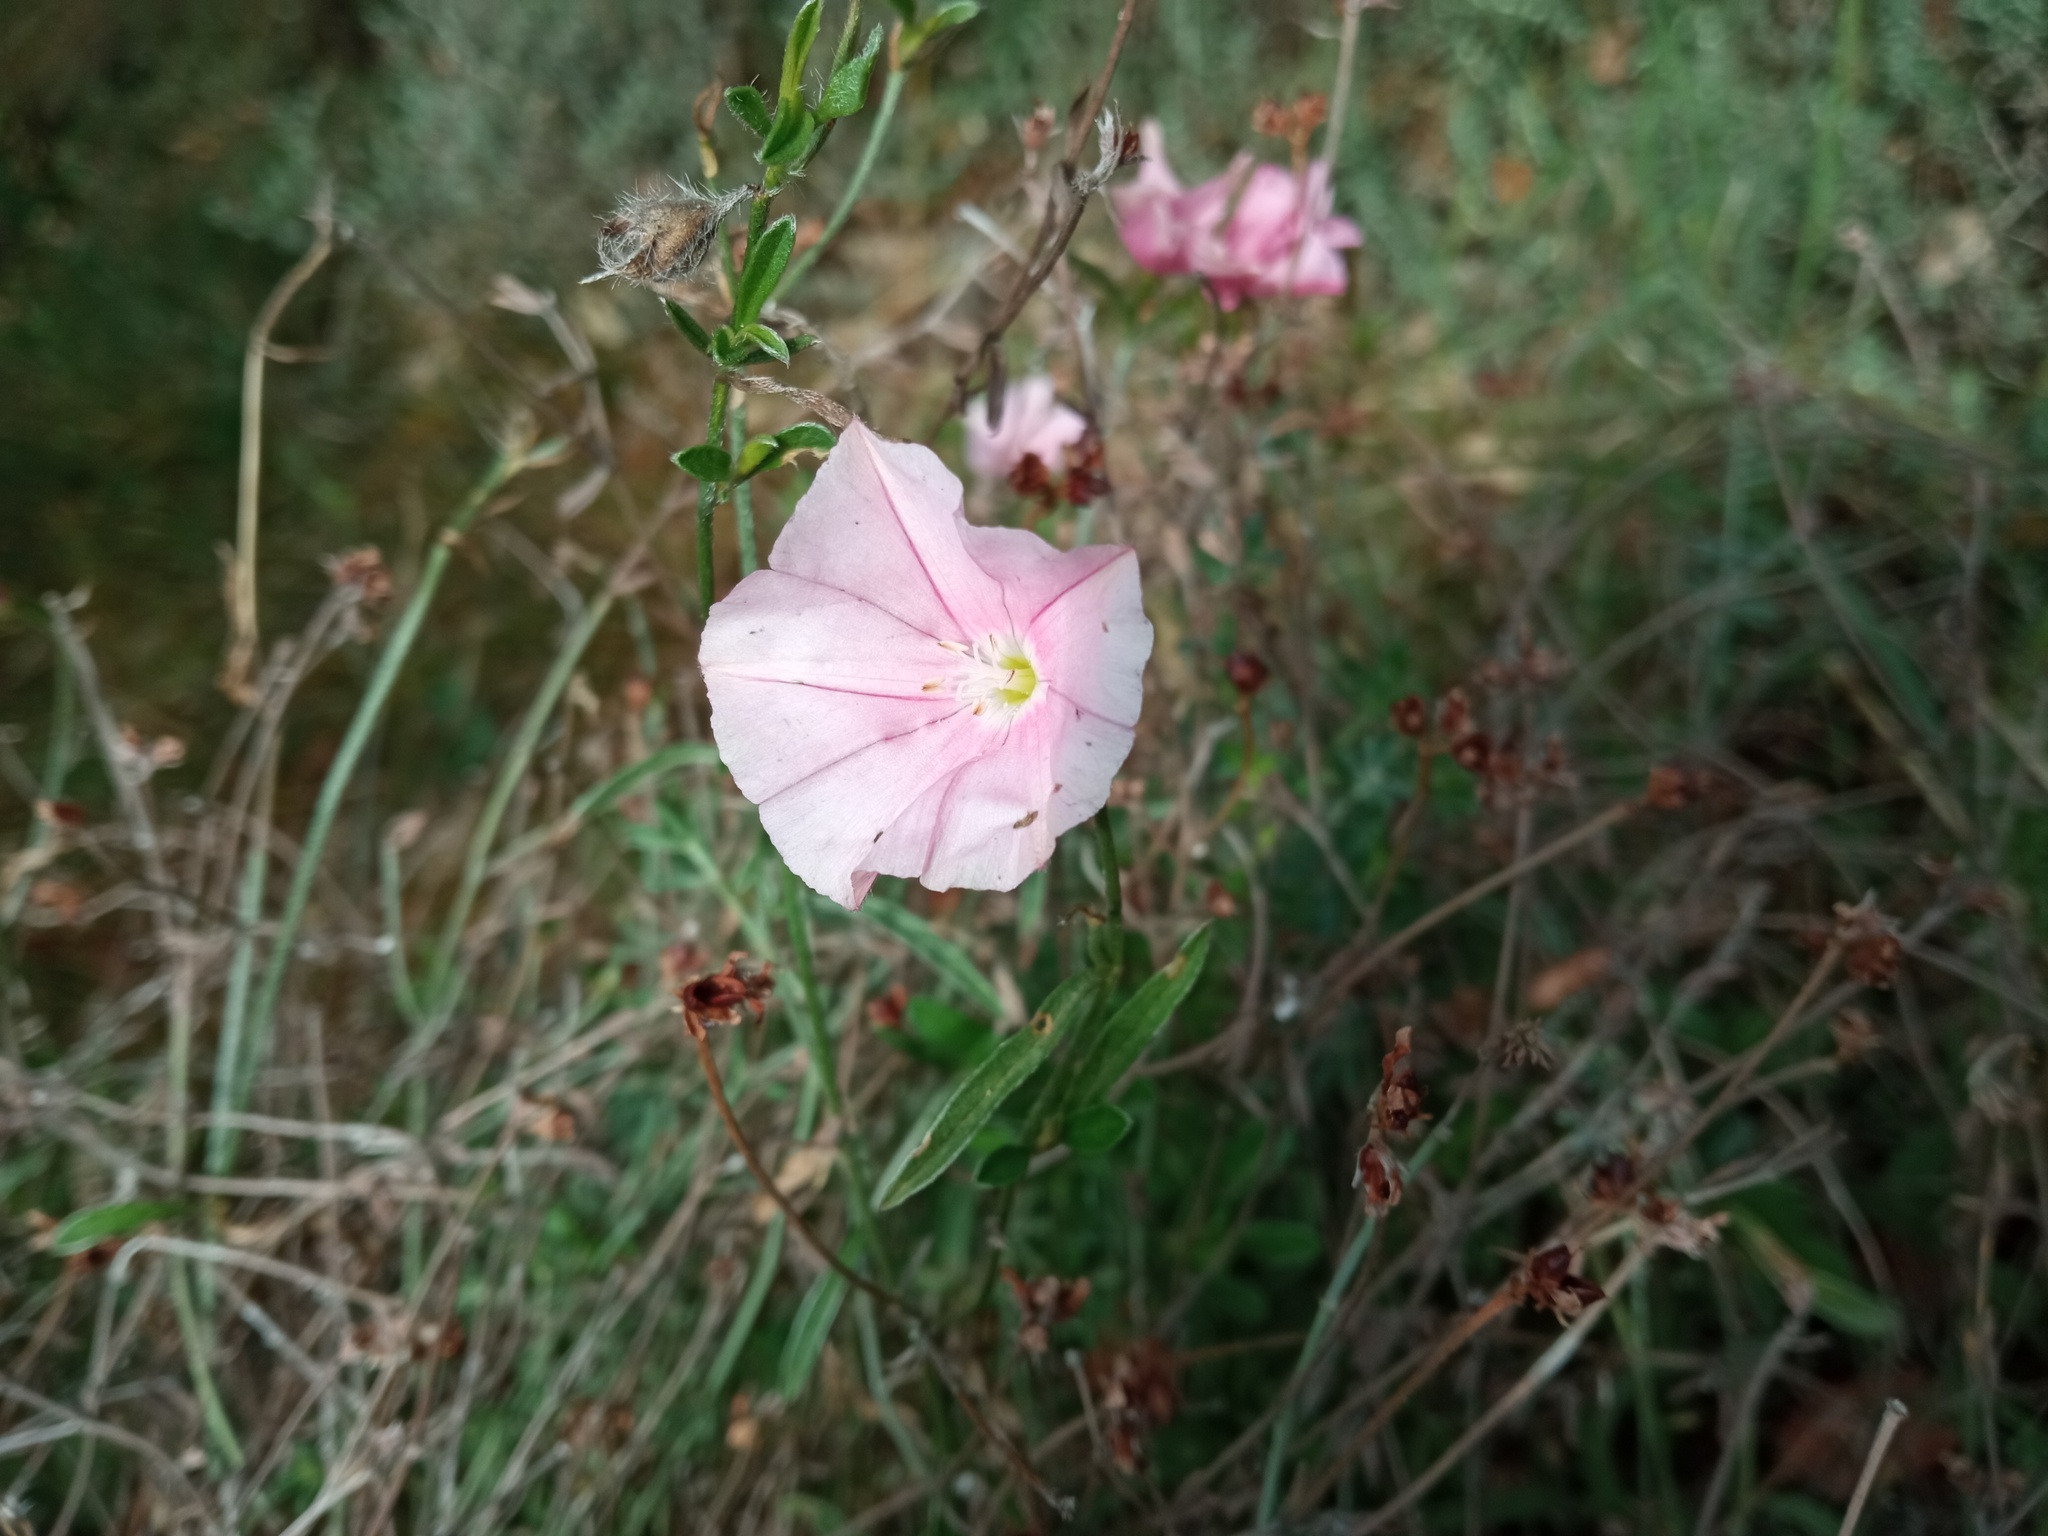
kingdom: Plantae
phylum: Tracheophyta
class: Magnoliopsida
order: Solanales
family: Convolvulaceae
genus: Convolvulus
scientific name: Convolvulus cantabrica
